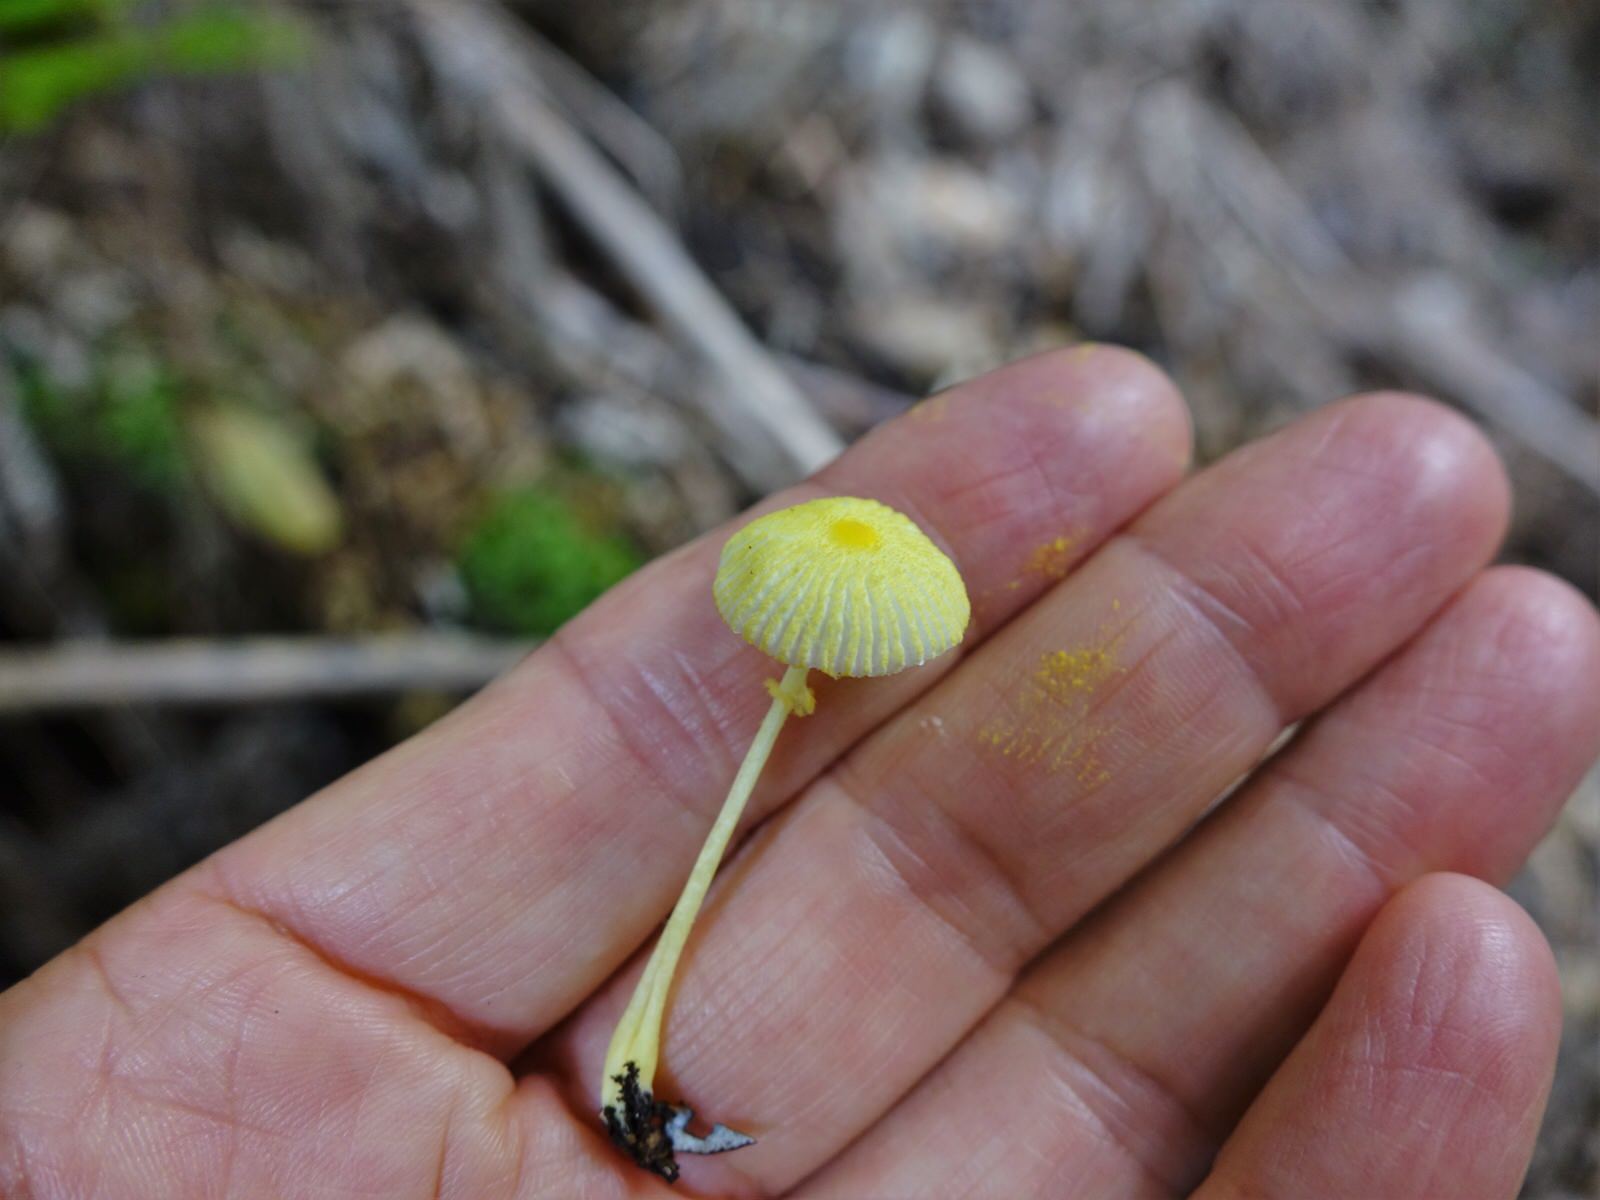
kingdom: Fungi
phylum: Basidiomycota
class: Agaricomycetes
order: Agaricales
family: Agaricaceae
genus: Leucocoprinus
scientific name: Leucocoprinus fragilissimus
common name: Fragile dapperling
